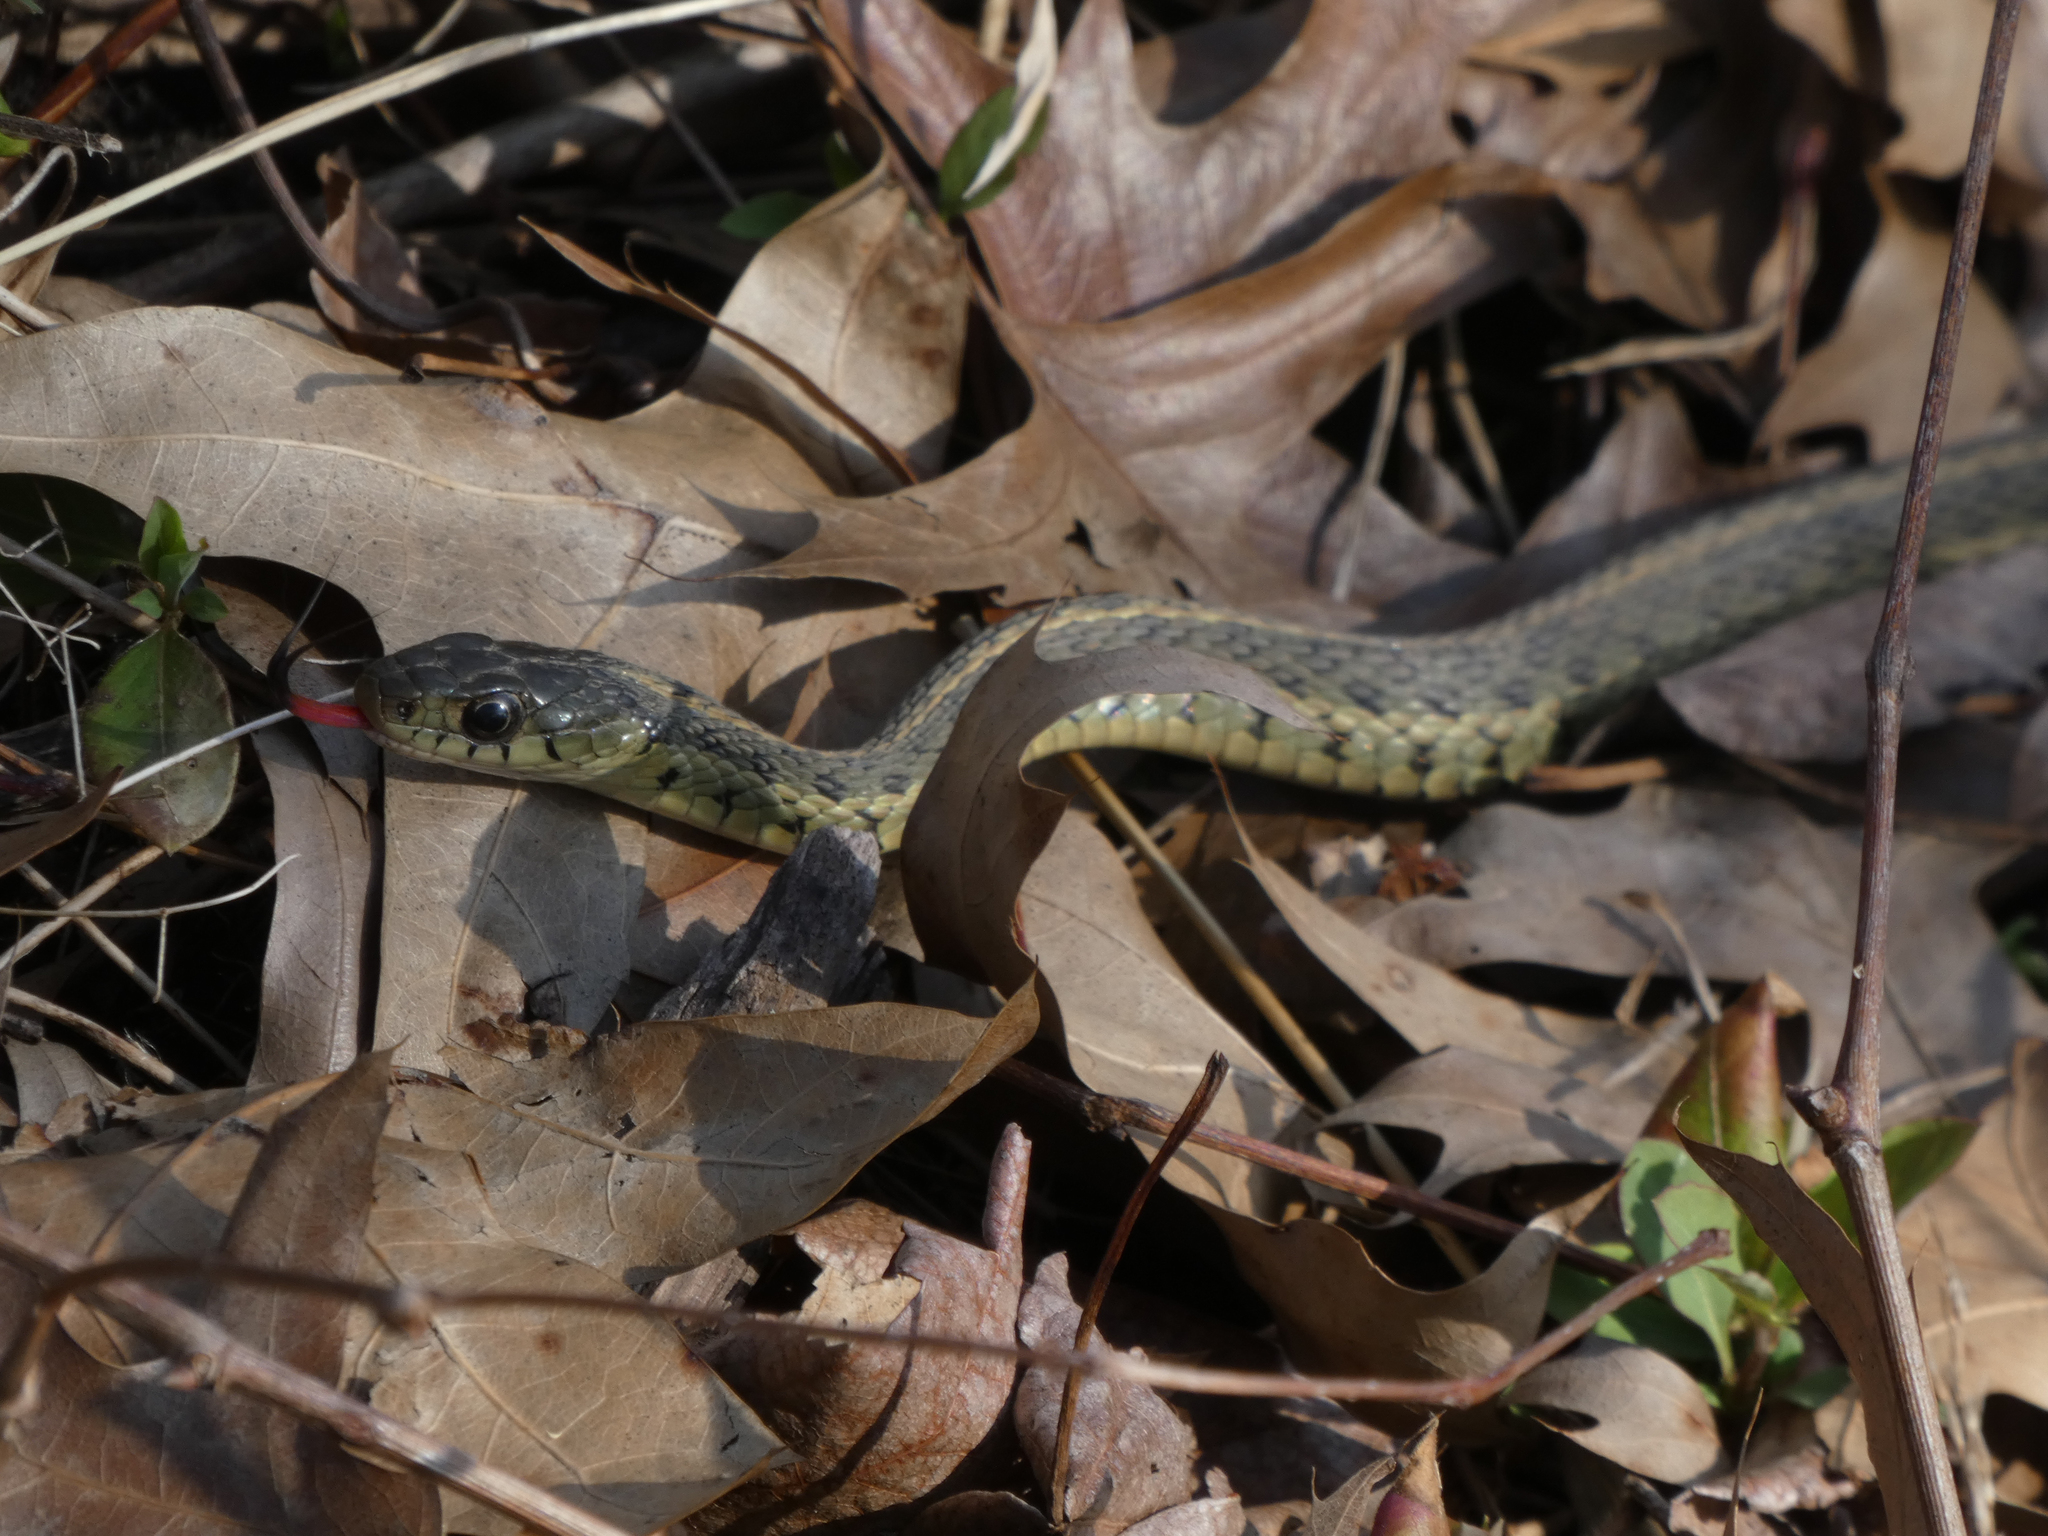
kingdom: Animalia
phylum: Chordata
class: Squamata
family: Colubridae
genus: Thamnophis
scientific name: Thamnophis sirtalis
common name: Common garter snake
